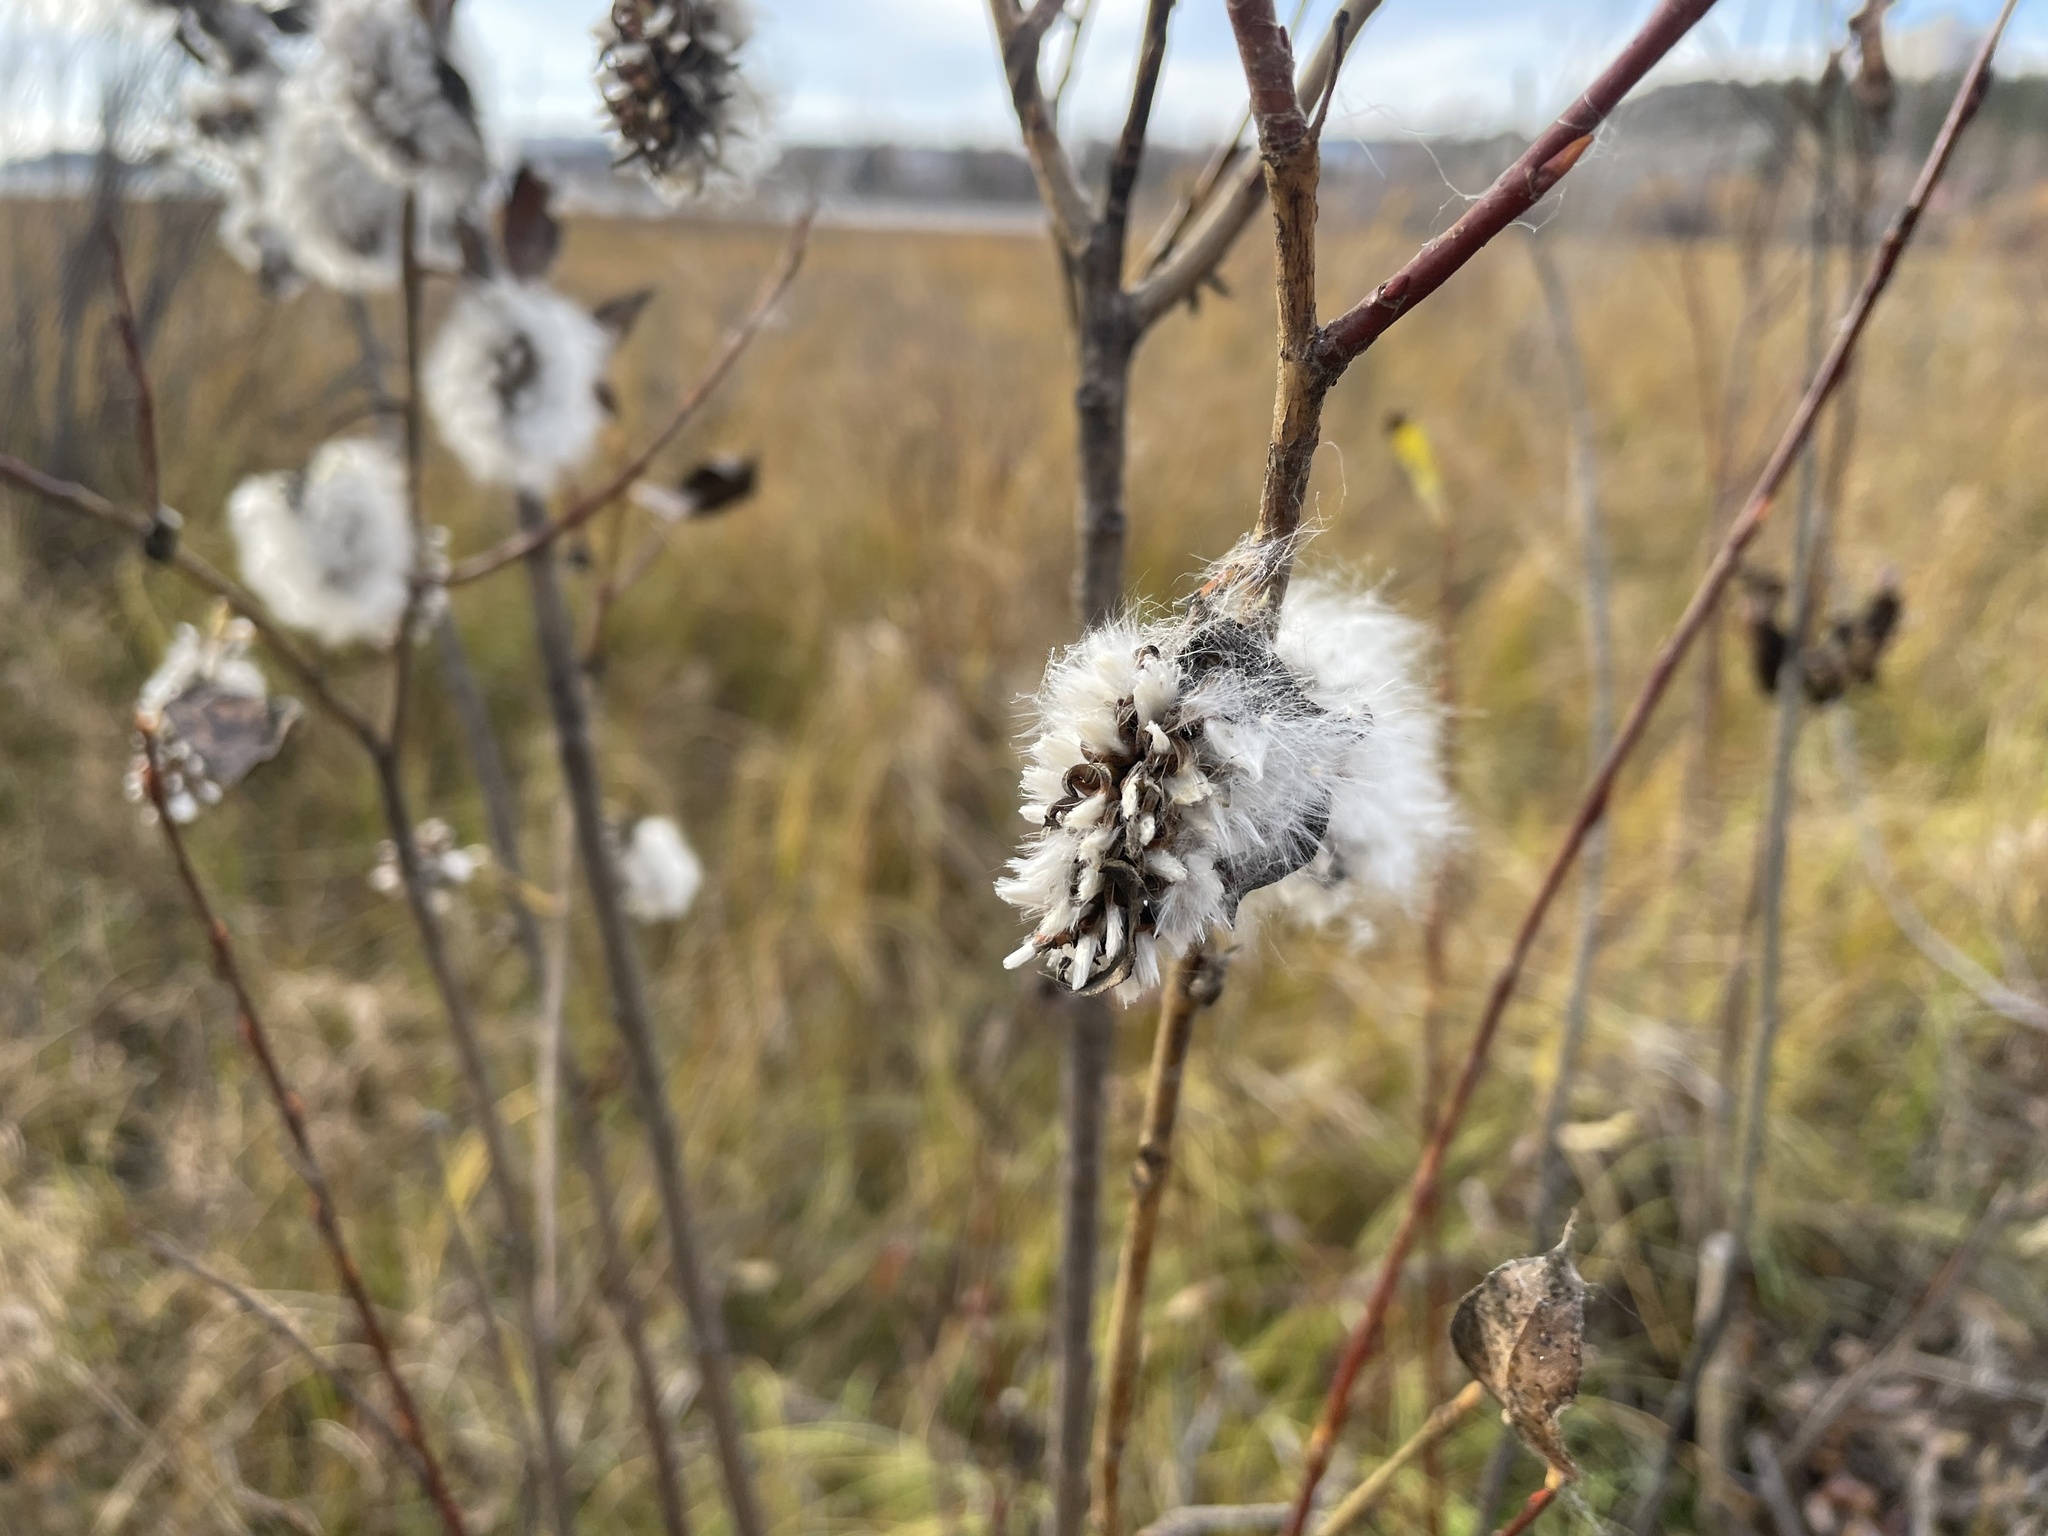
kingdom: Plantae
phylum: Tracheophyta
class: Magnoliopsida
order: Malpighiales
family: Salicaceae
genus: Salix
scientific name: Salix serissima
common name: Autumn willow
